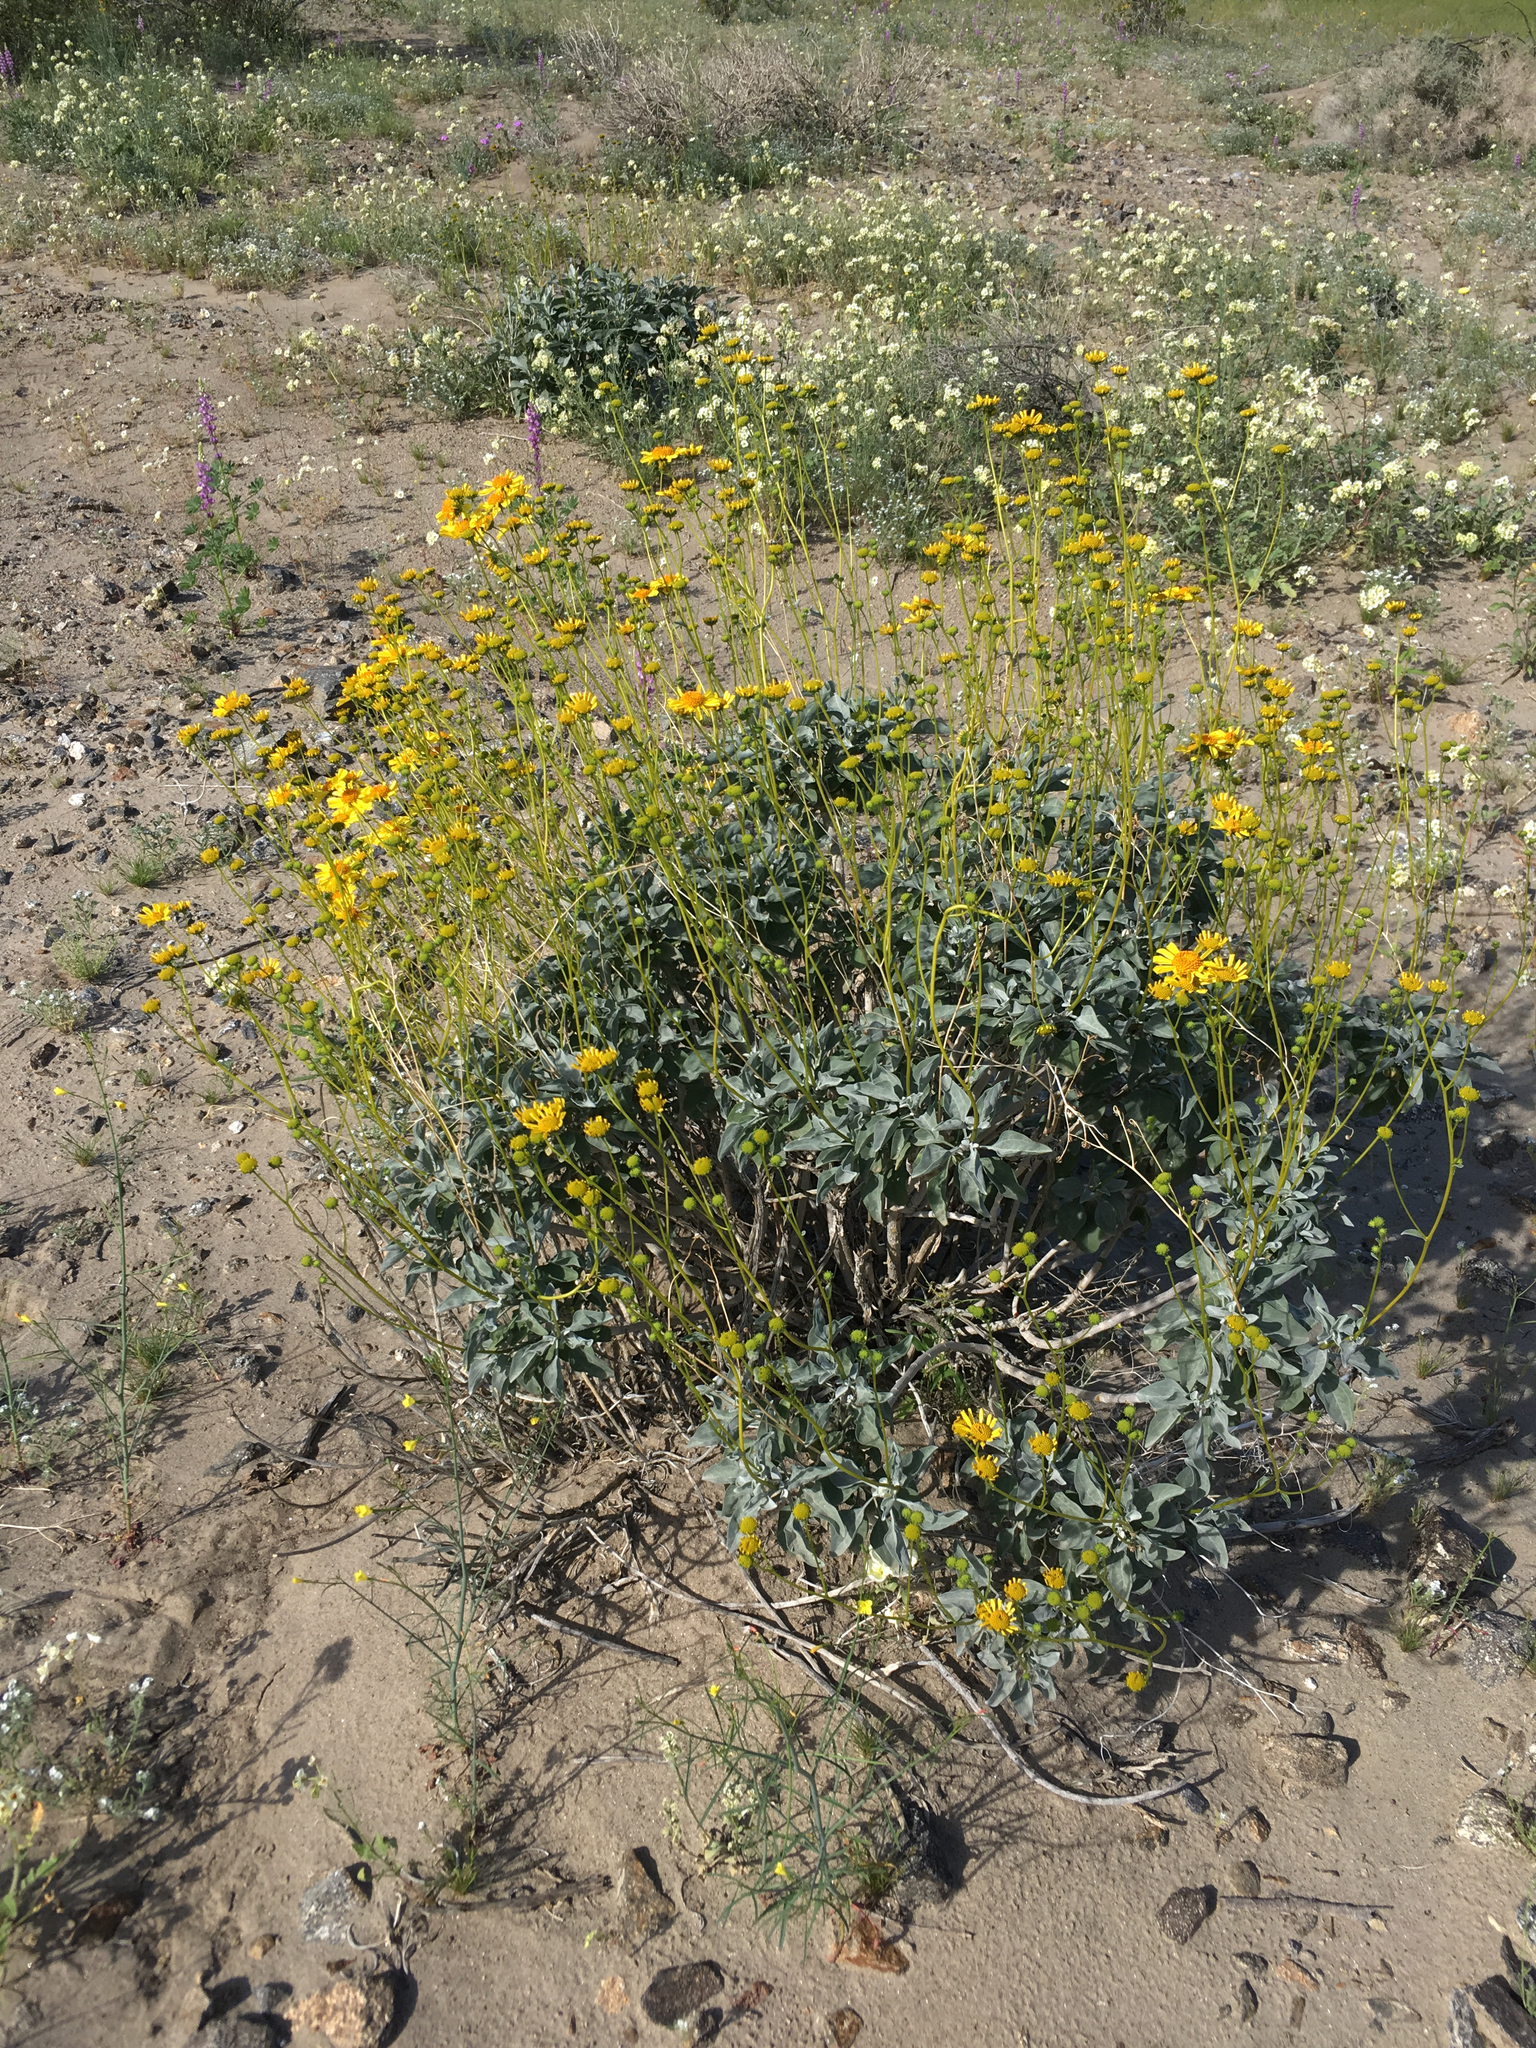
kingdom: Plantae
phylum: Tracheophyta
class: Magnoliopsida
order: Asterales
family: Asteraceae
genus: Encelia
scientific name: Encelia farinosa
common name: Brittlebush
